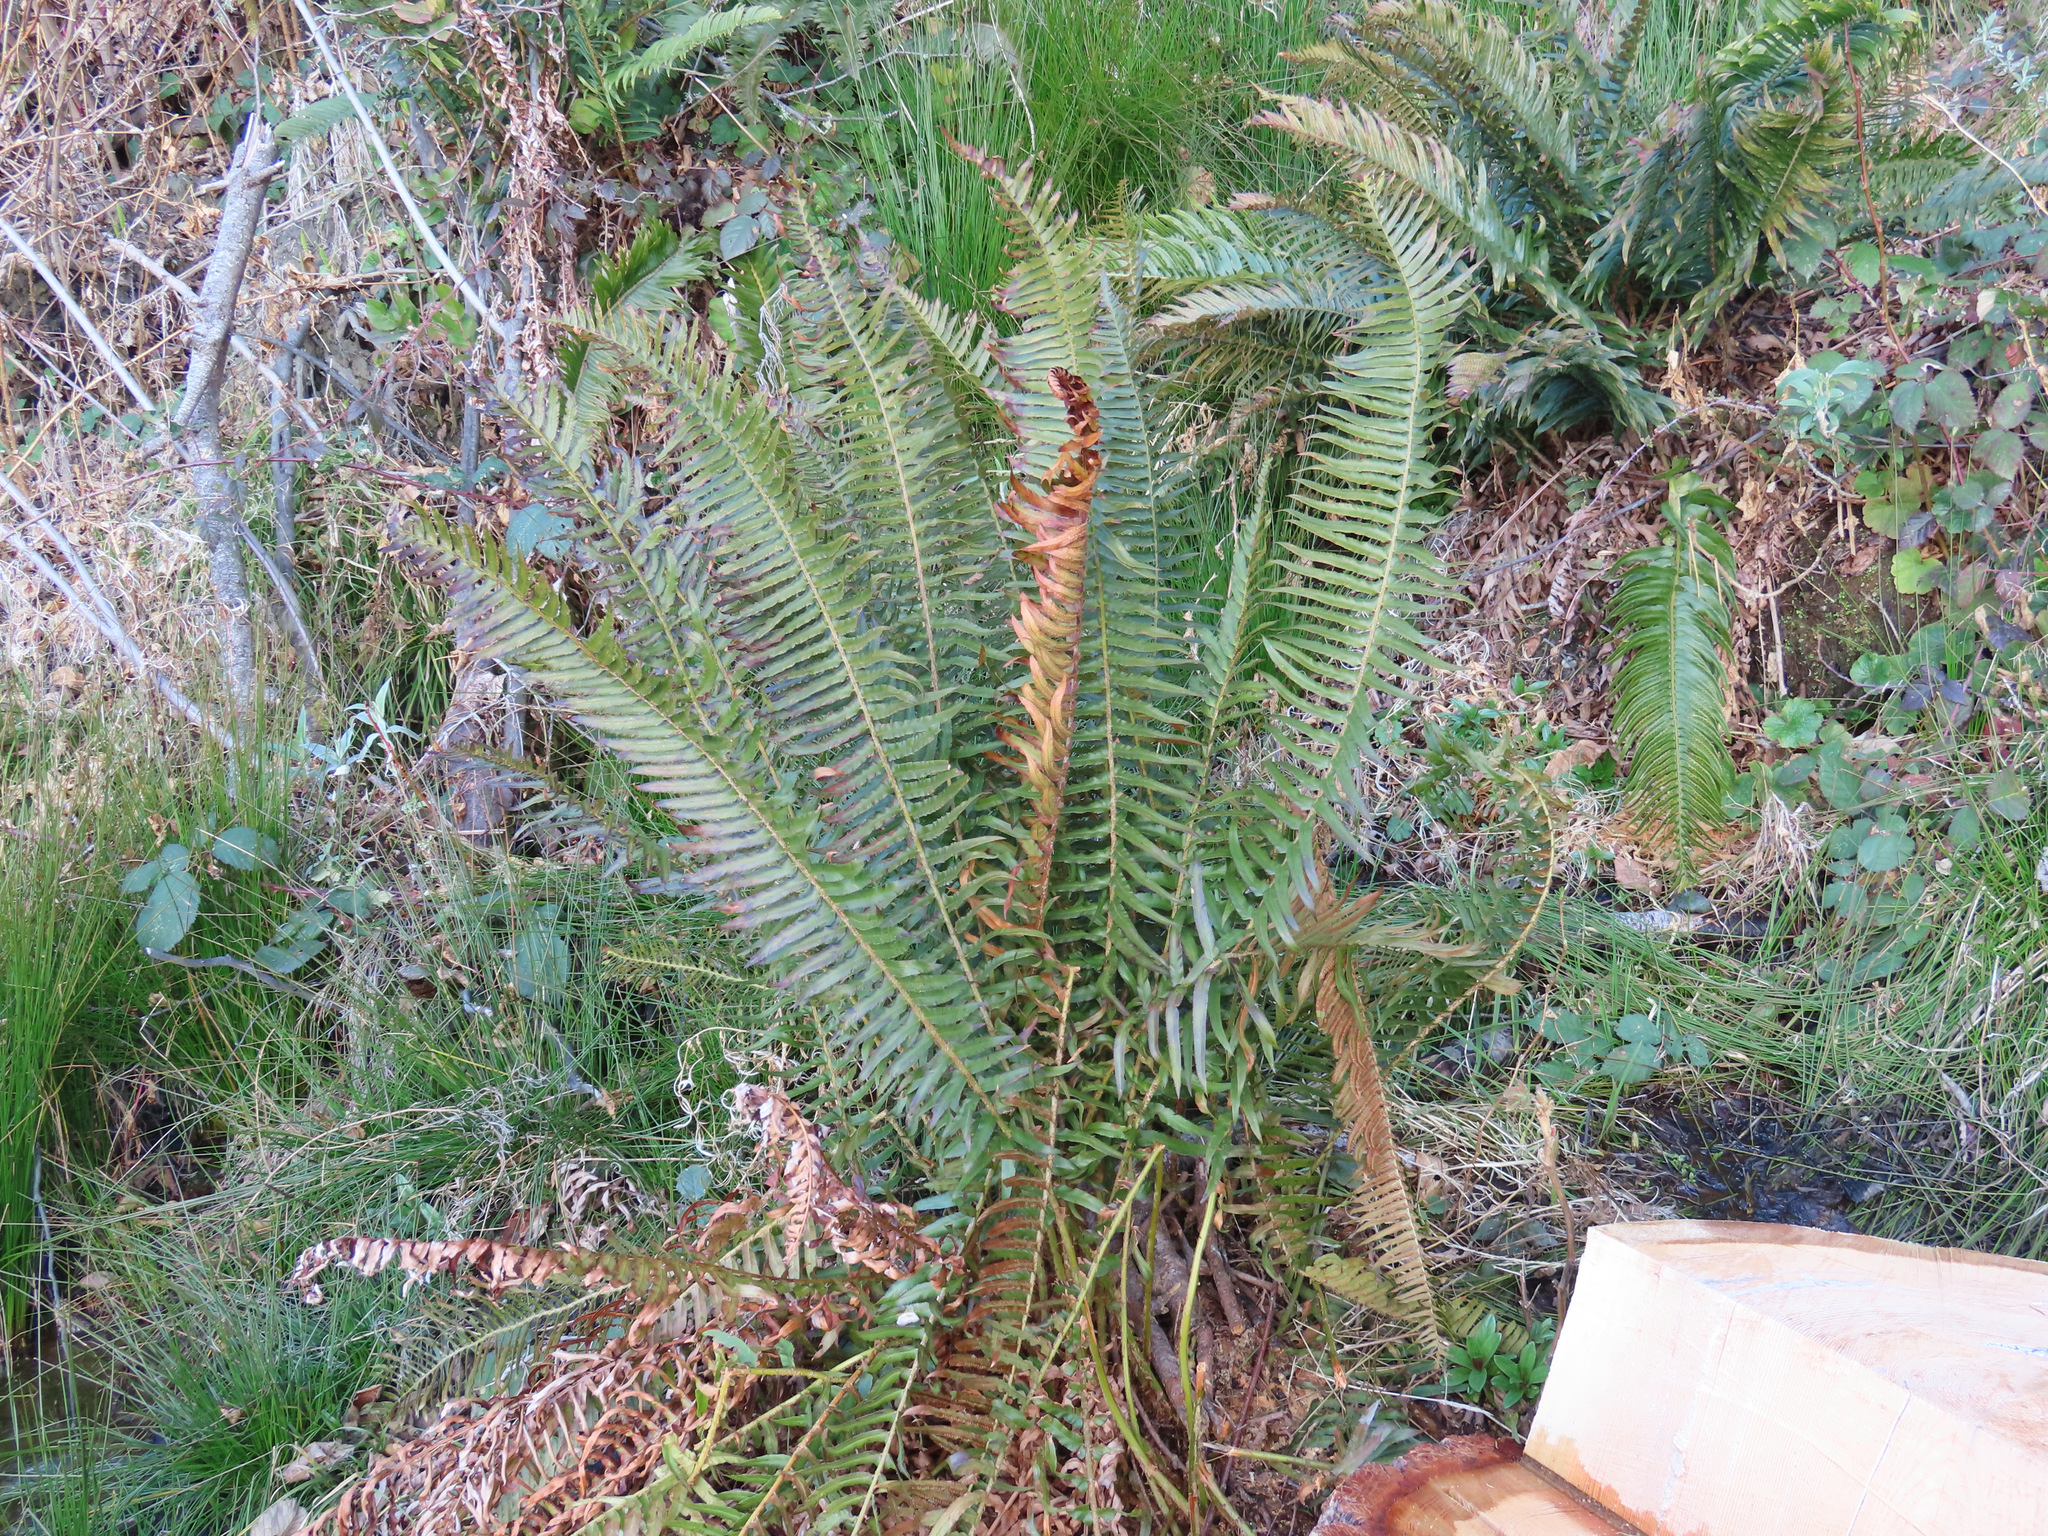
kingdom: Plantae
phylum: Tracheophyta
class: Polypodiopsida
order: Polypodiales
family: Dryopteridaceae
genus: Polystichum
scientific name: Polystichum munitum
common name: Western sword-fern
